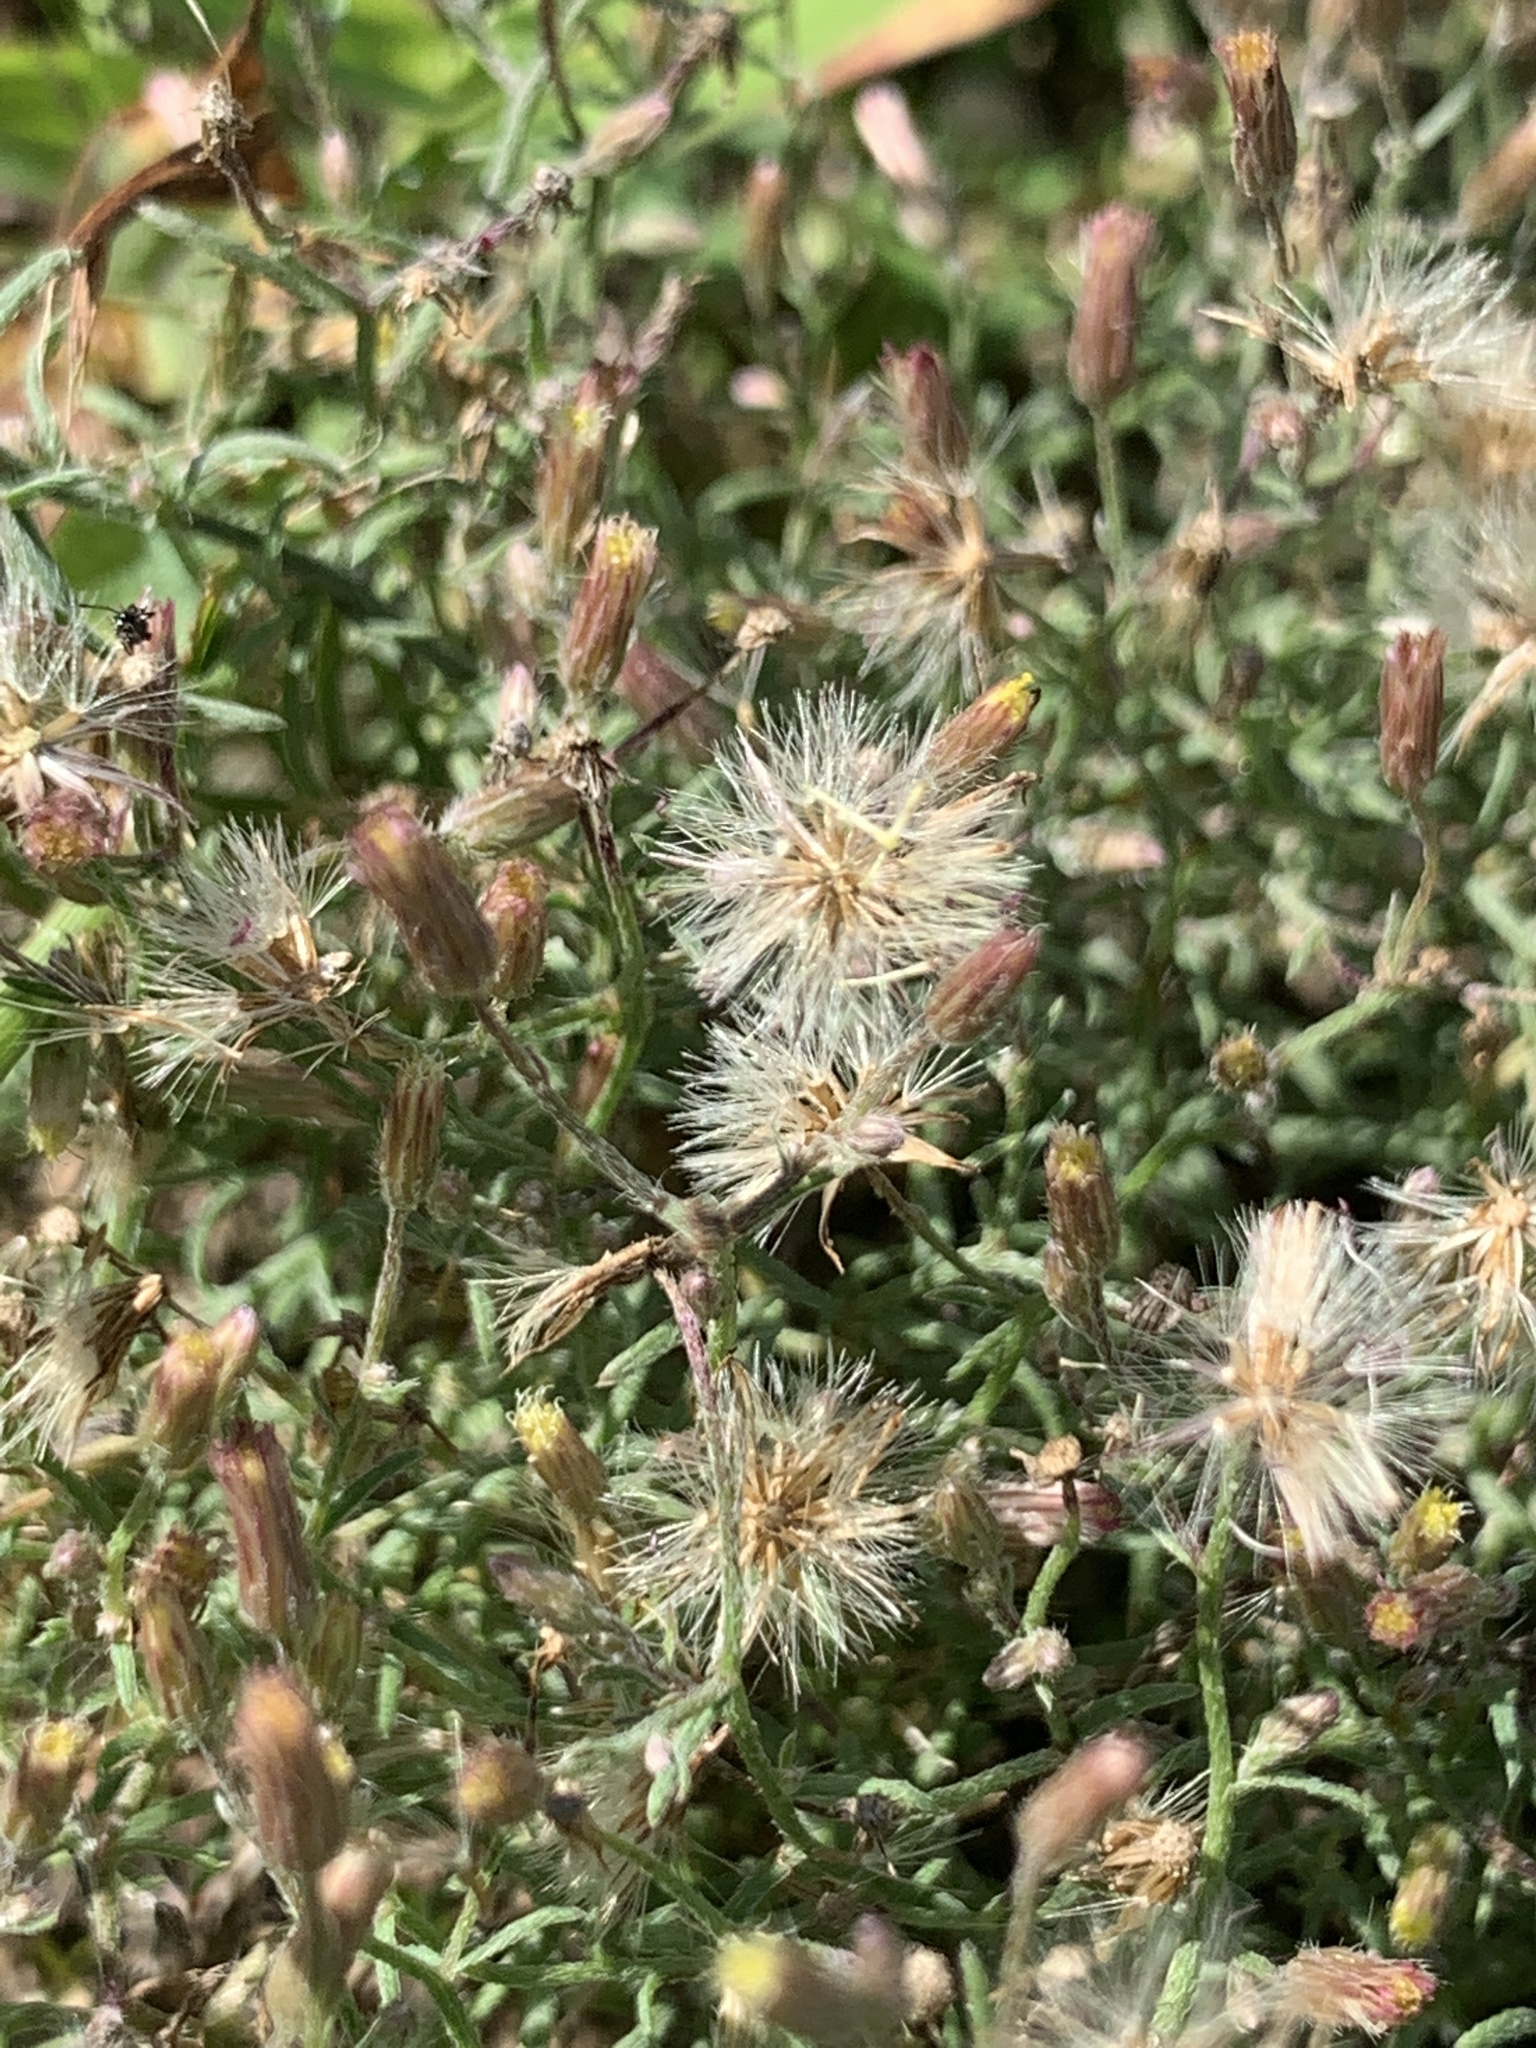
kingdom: Plantae
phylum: Tracheophyta
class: Magnoliopsida
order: Asterales
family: Asteraceae
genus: Erigeron
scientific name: Erigeron divaricatus
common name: Dwarf conyza
